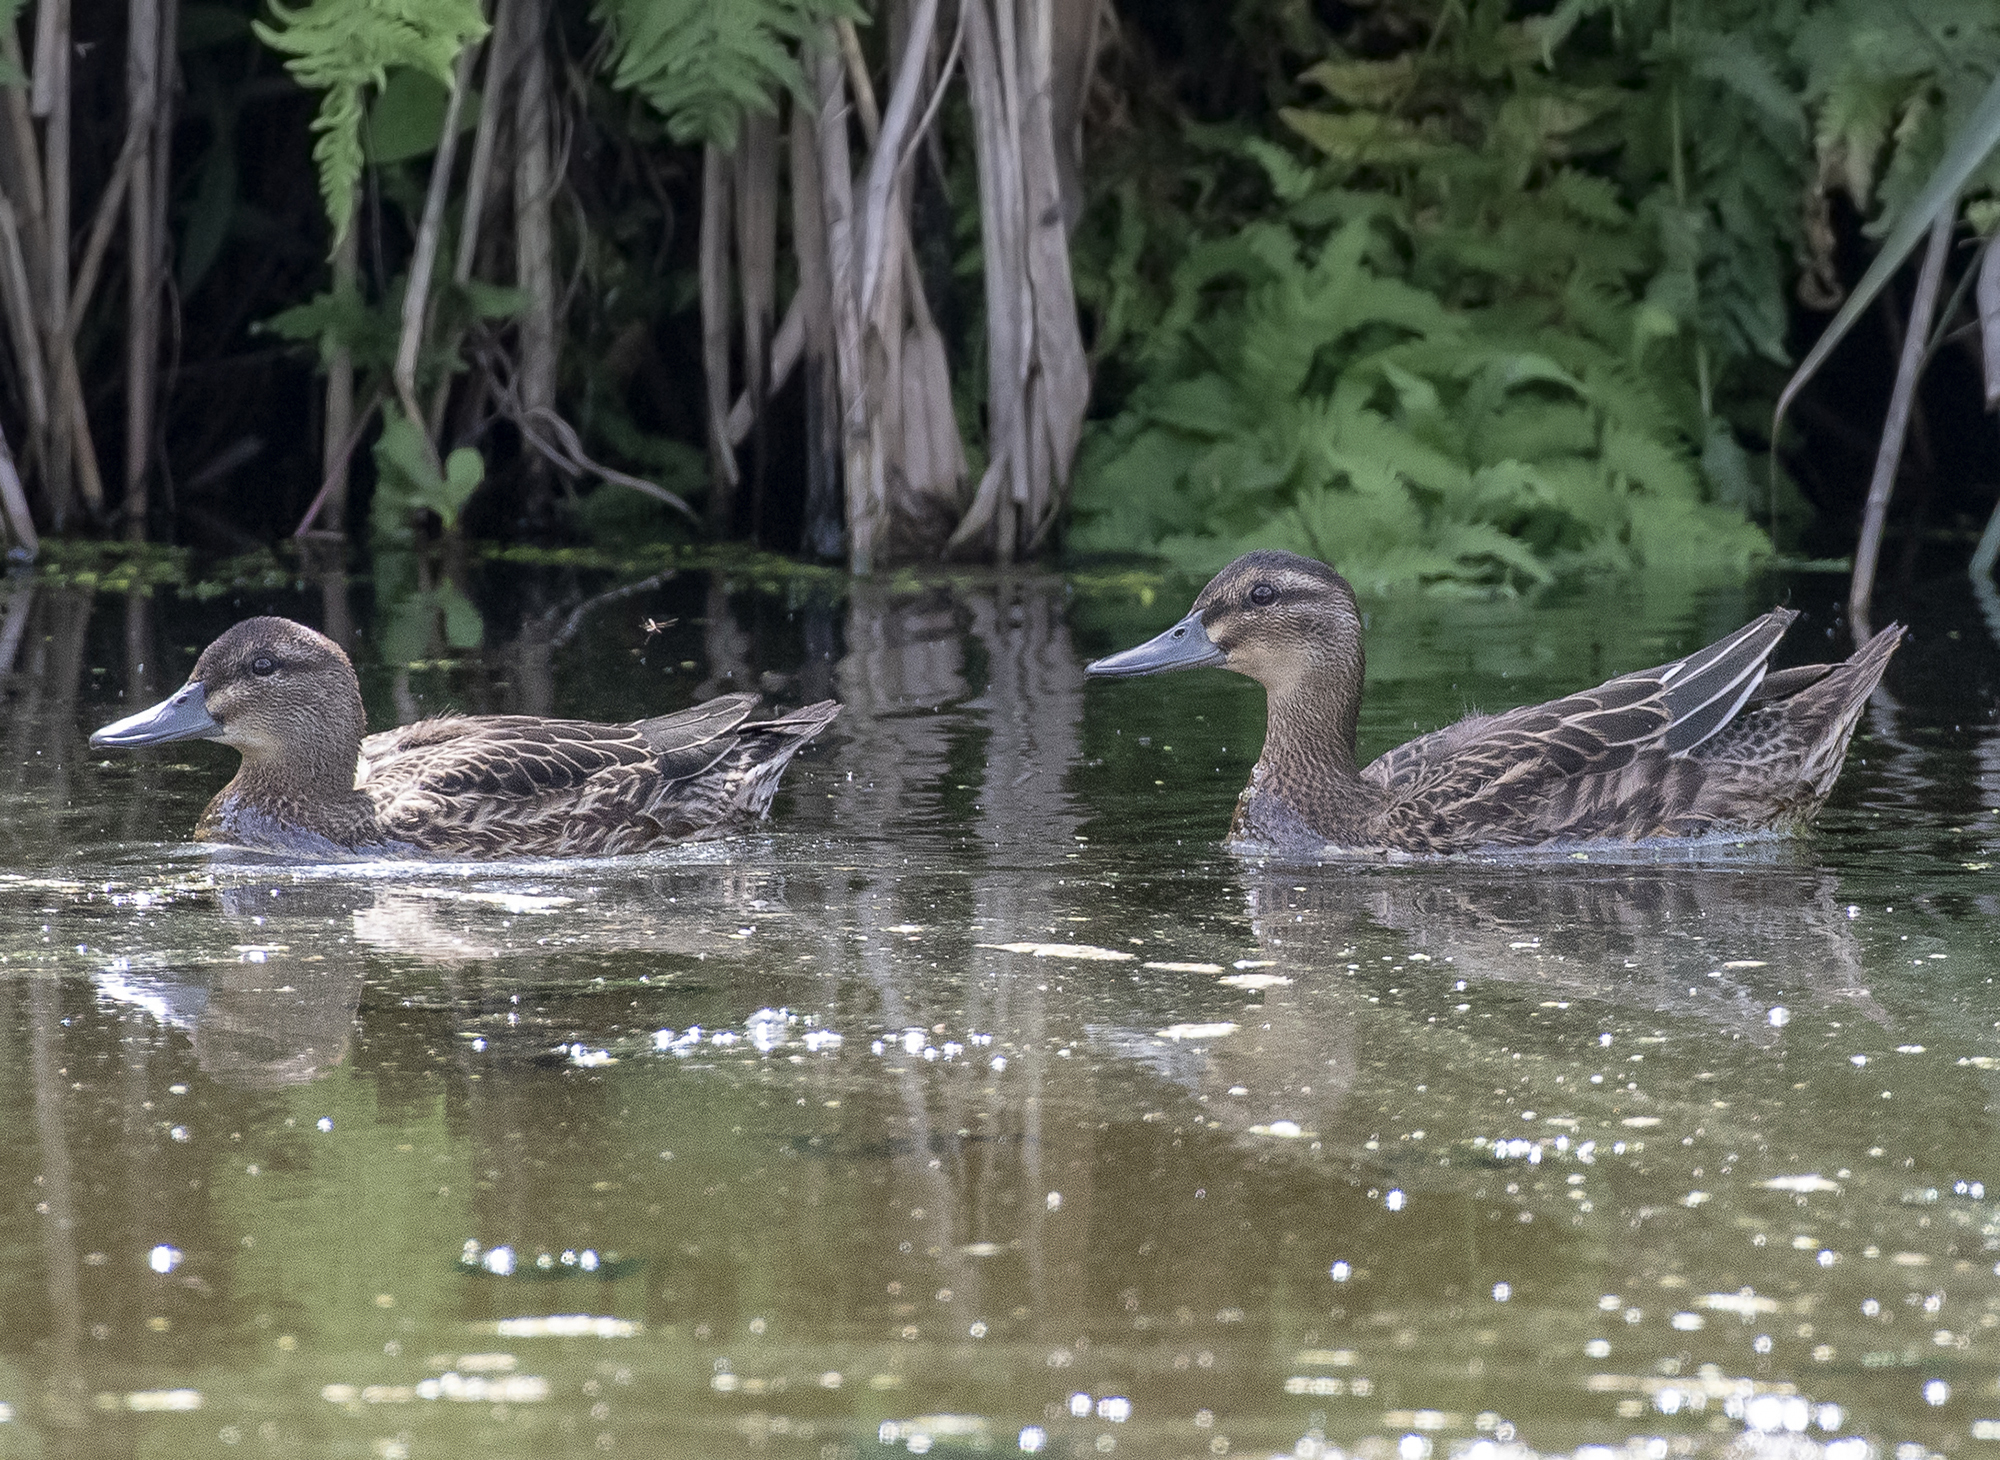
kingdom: Animalia
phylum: Chordata
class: Aves
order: Anseriformes
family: Anatidae
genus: Spatula
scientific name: Spatula querquedula
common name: Garganey
